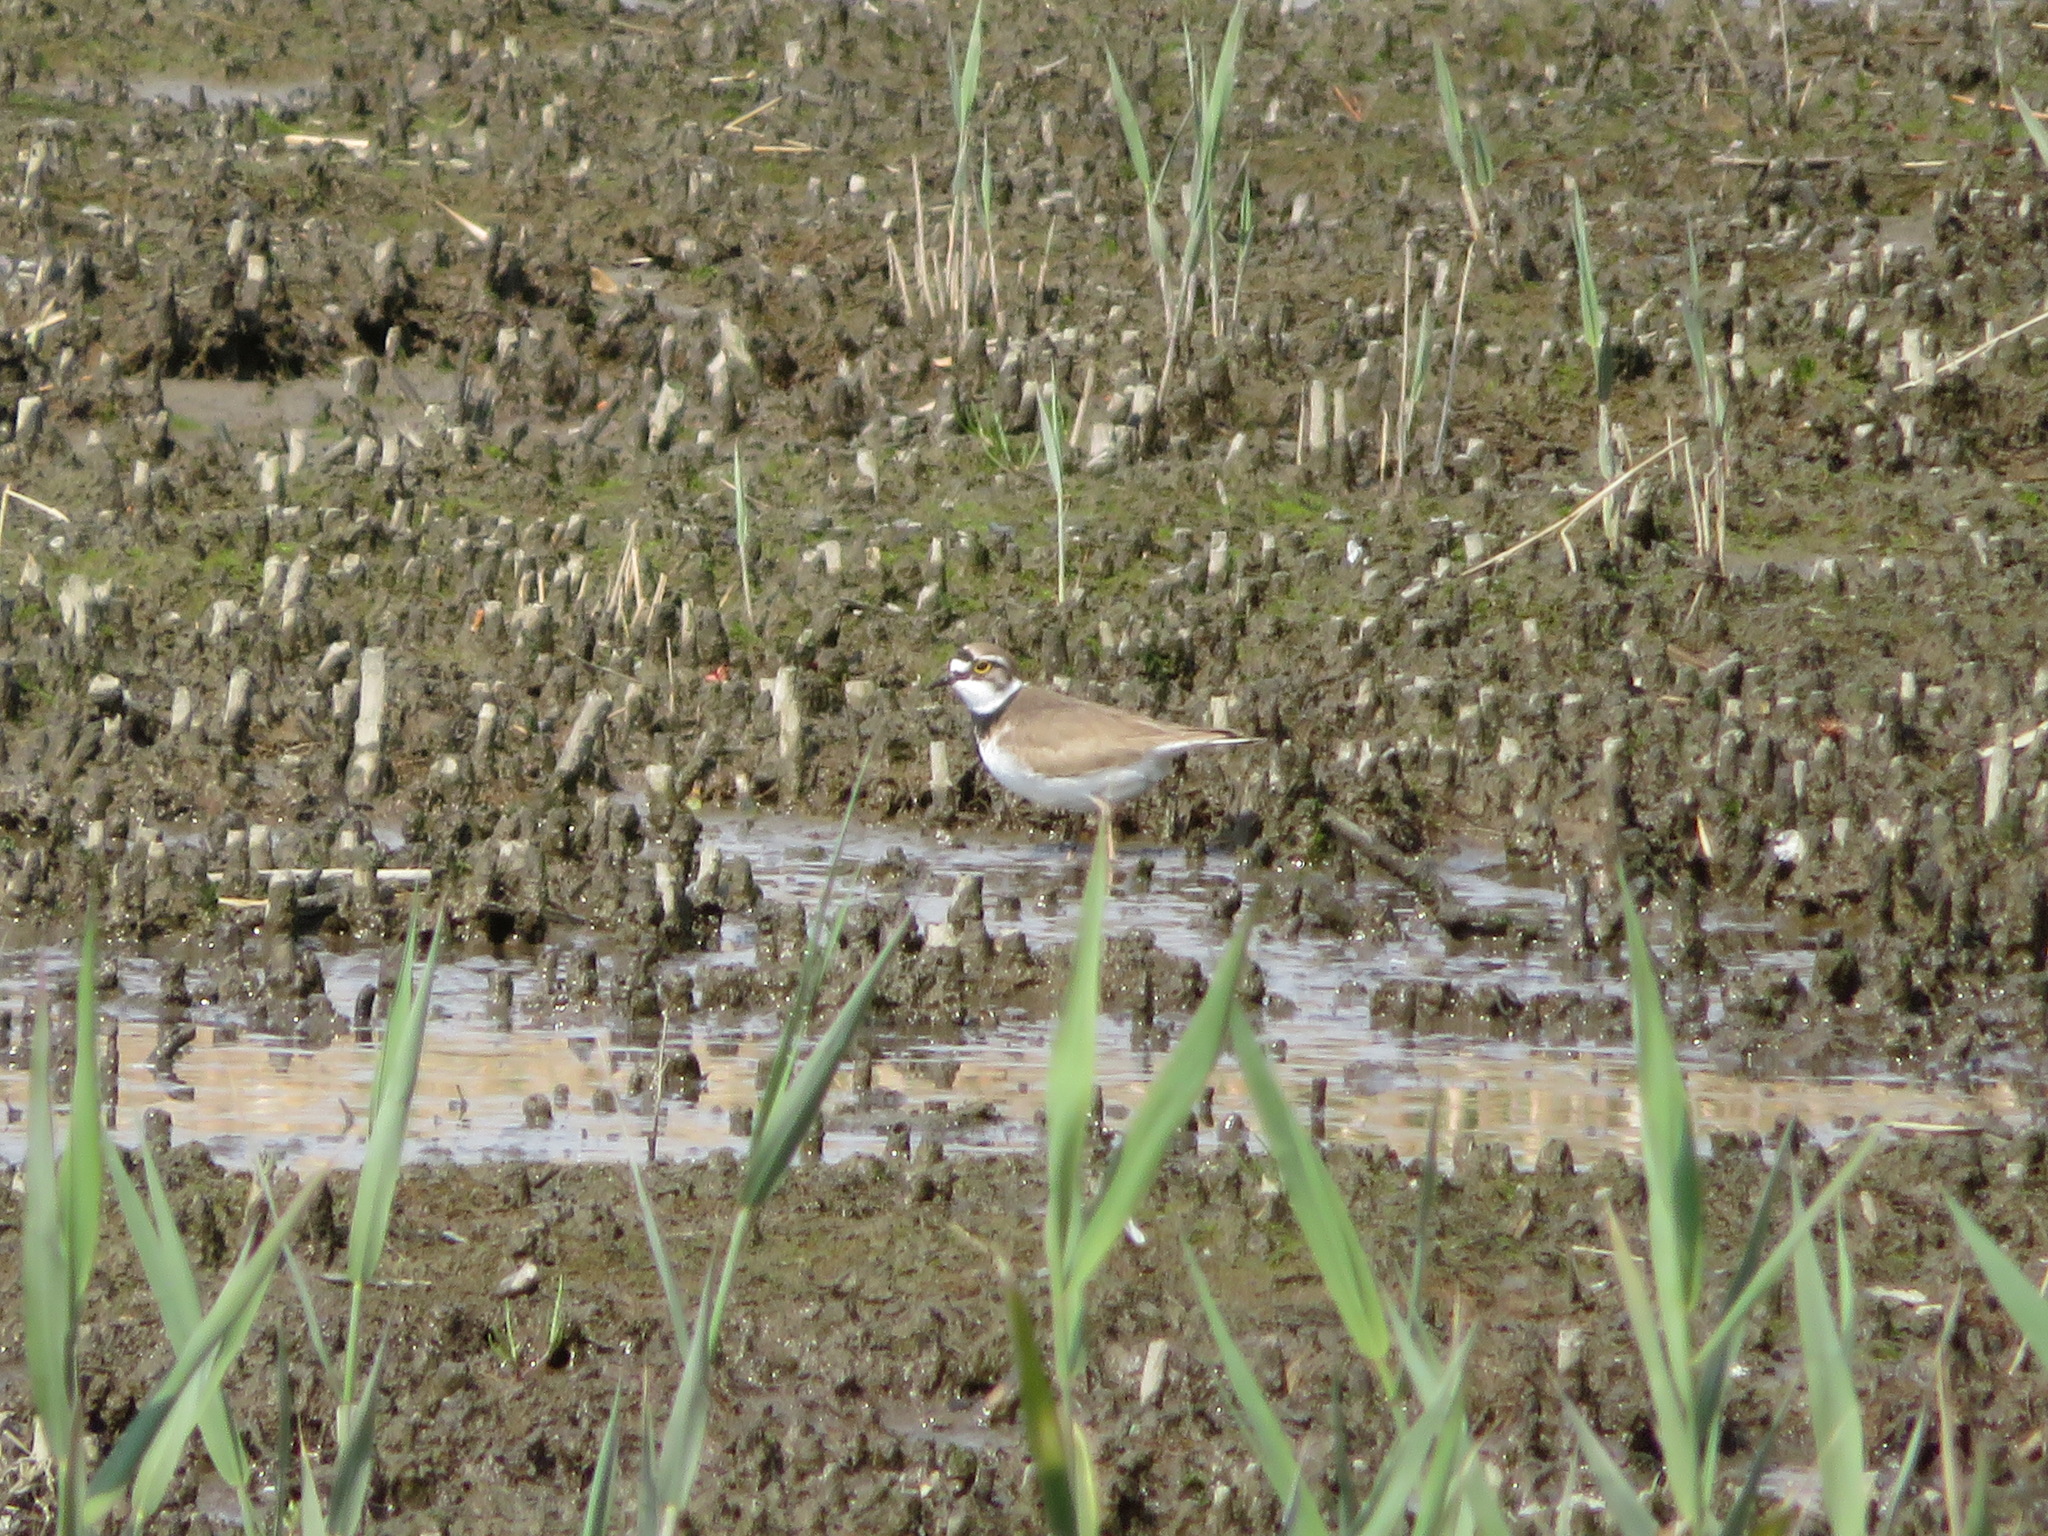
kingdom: Animalia
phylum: Chordata
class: Aves
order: Charadriiformes
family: Charadriidae
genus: Charadrius
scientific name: Charadrius dubius
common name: Little ringed plover
